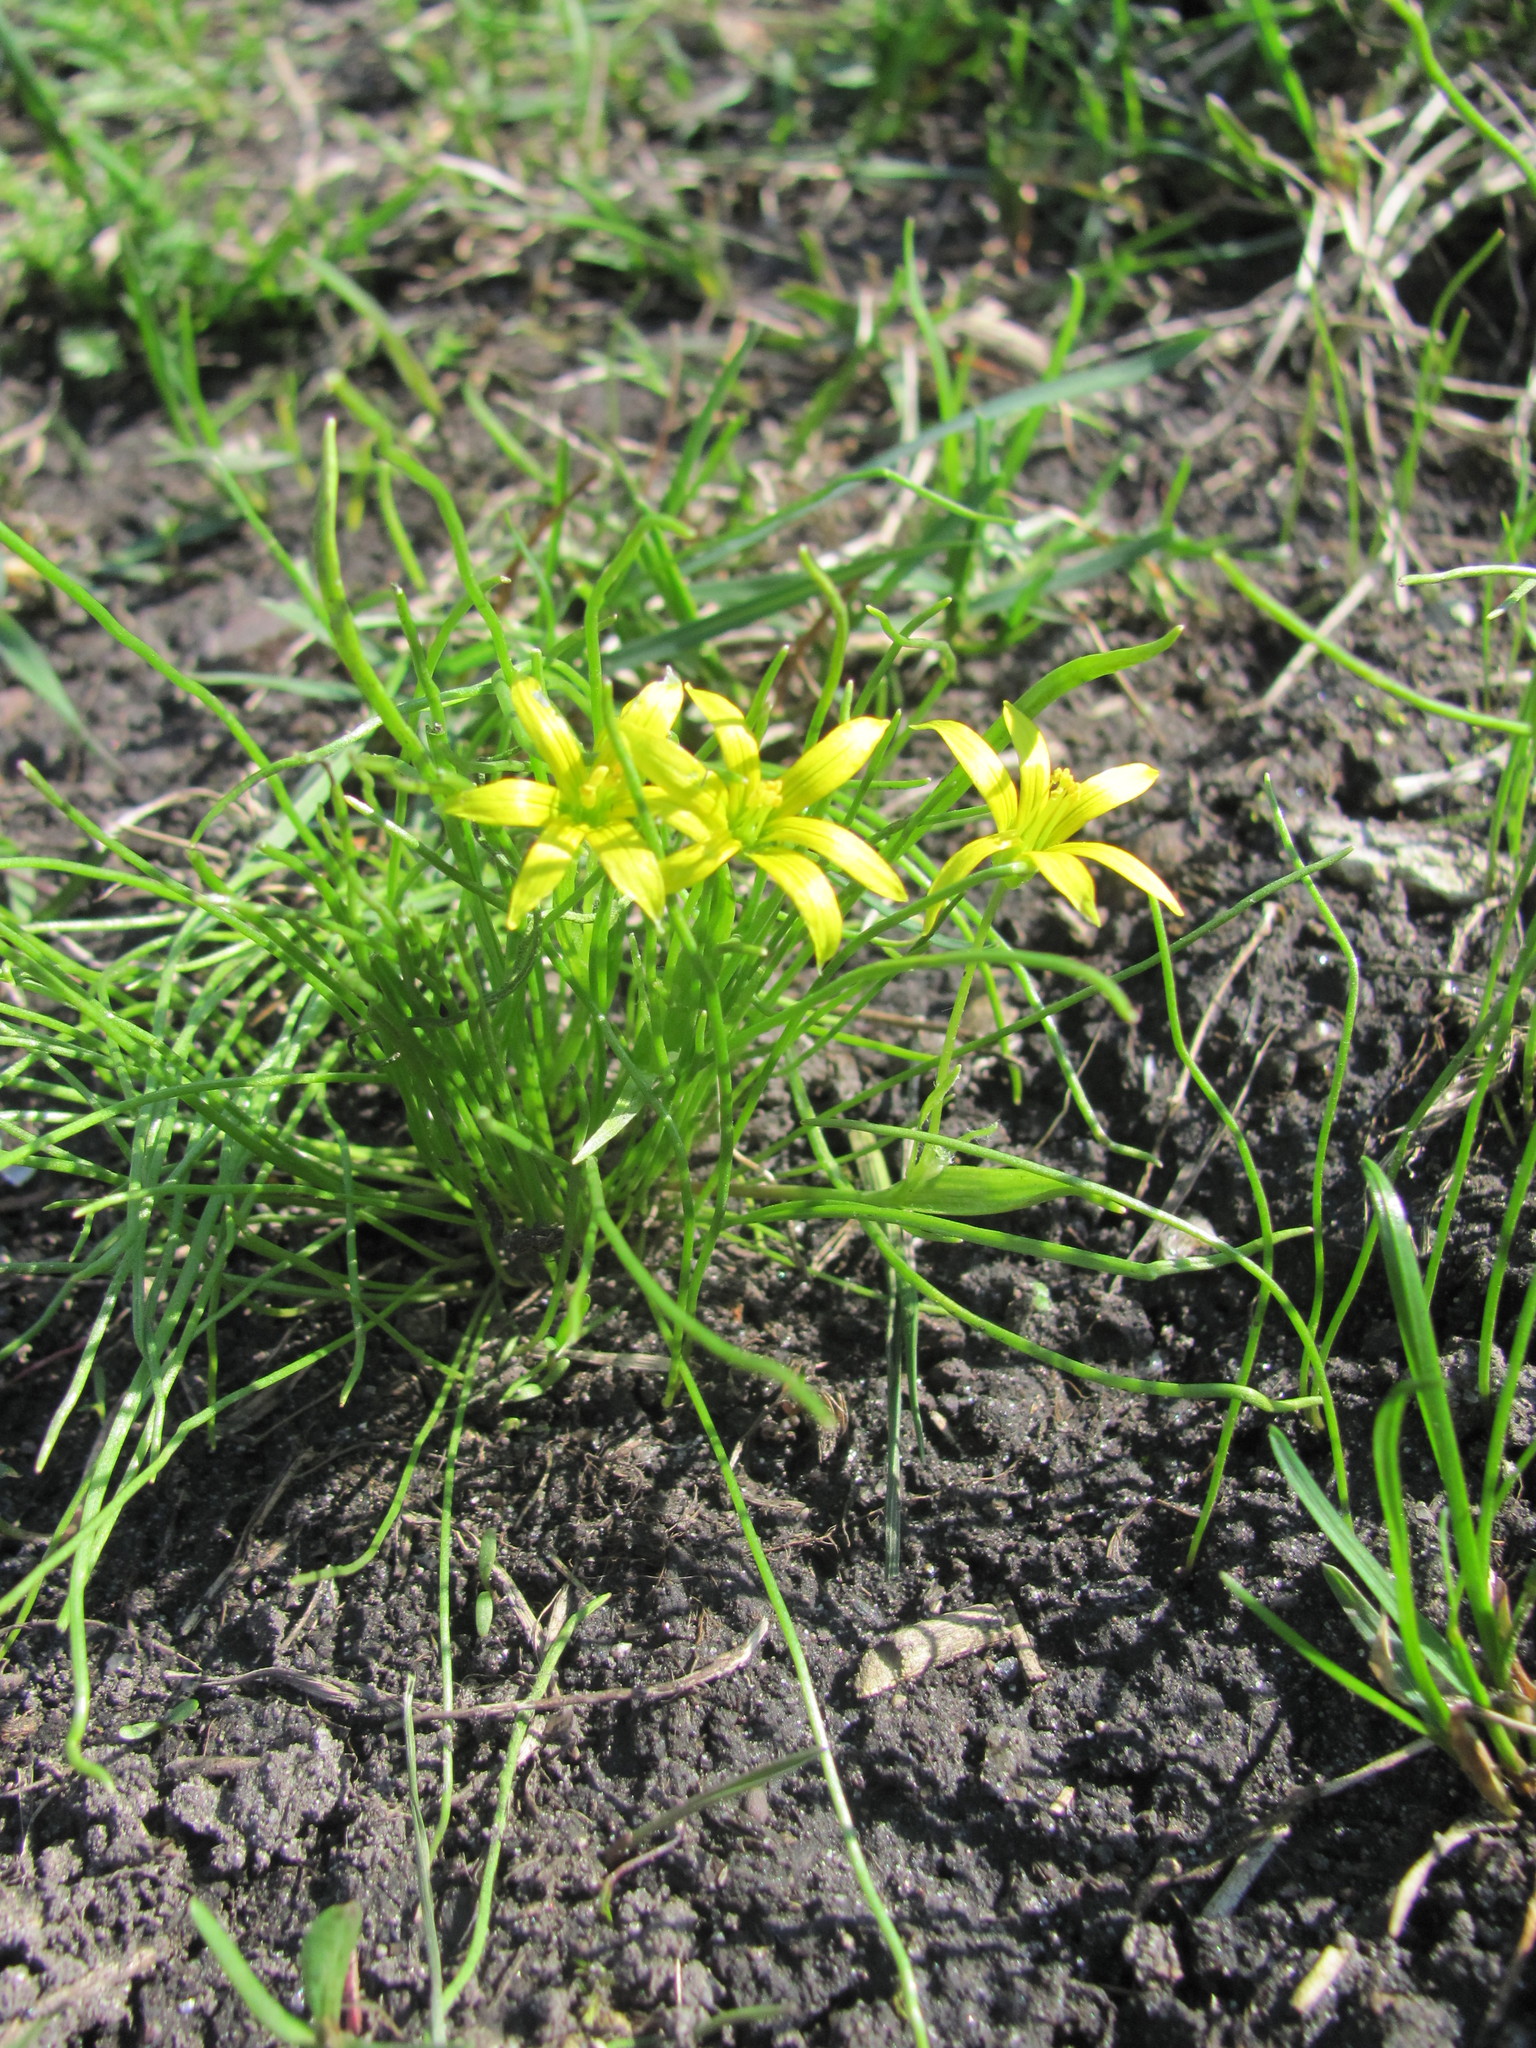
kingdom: Plantae
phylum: Tracheophyta
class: Liliopsida
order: Liliales
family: Liliaceae
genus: Gagea
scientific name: Gagea minima
